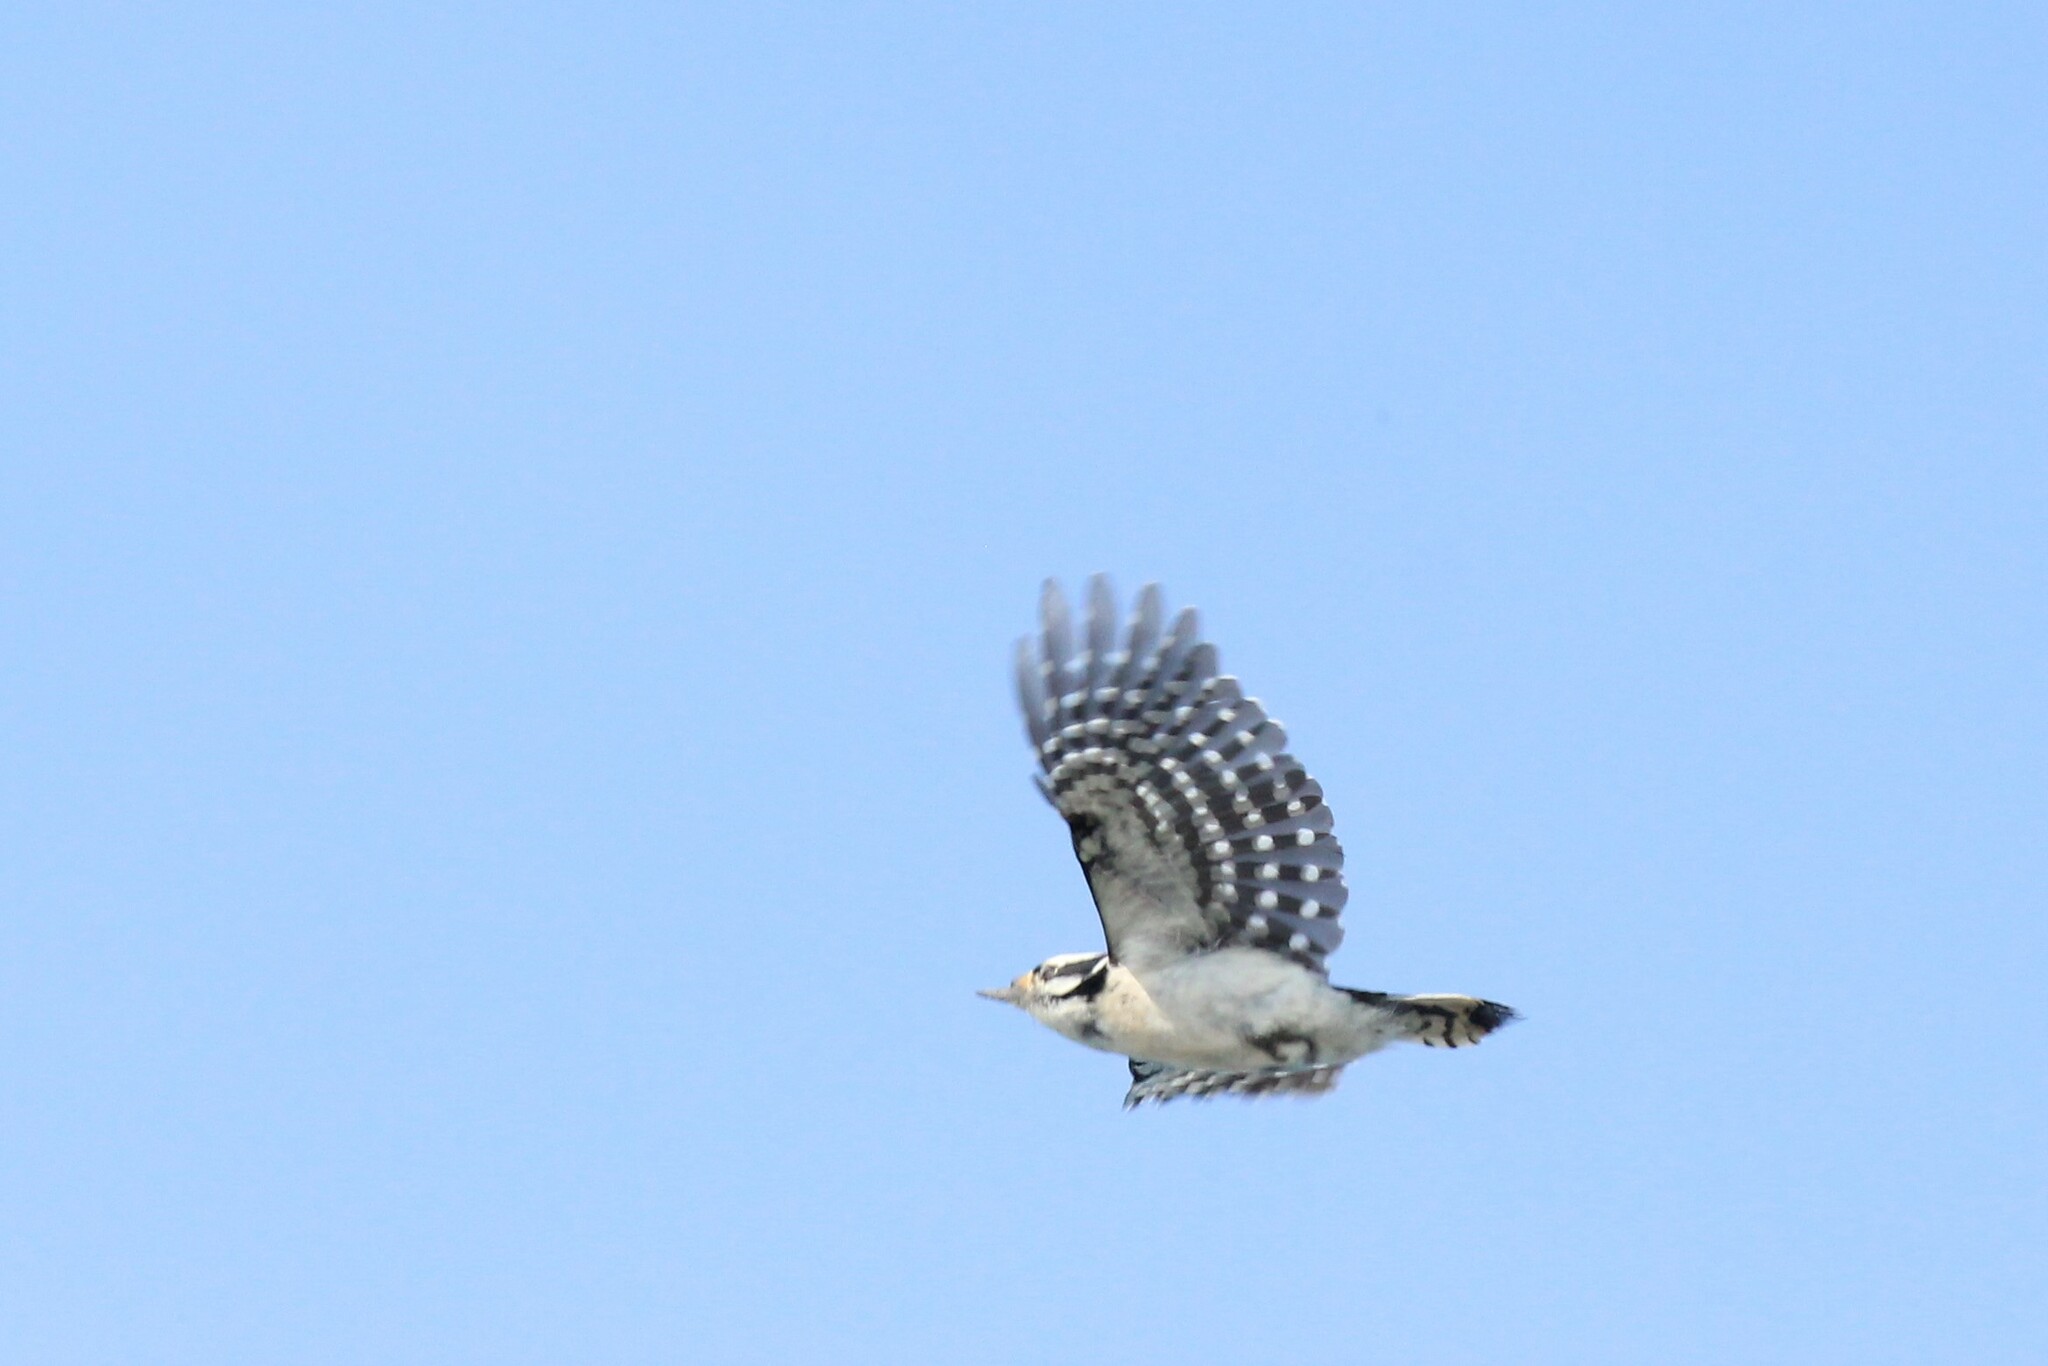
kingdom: Animalia
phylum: Chordata
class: Aves
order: Piciformes
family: Picidae
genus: Dryobates
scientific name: Dryobates pubescens
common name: Downy woodpecker
